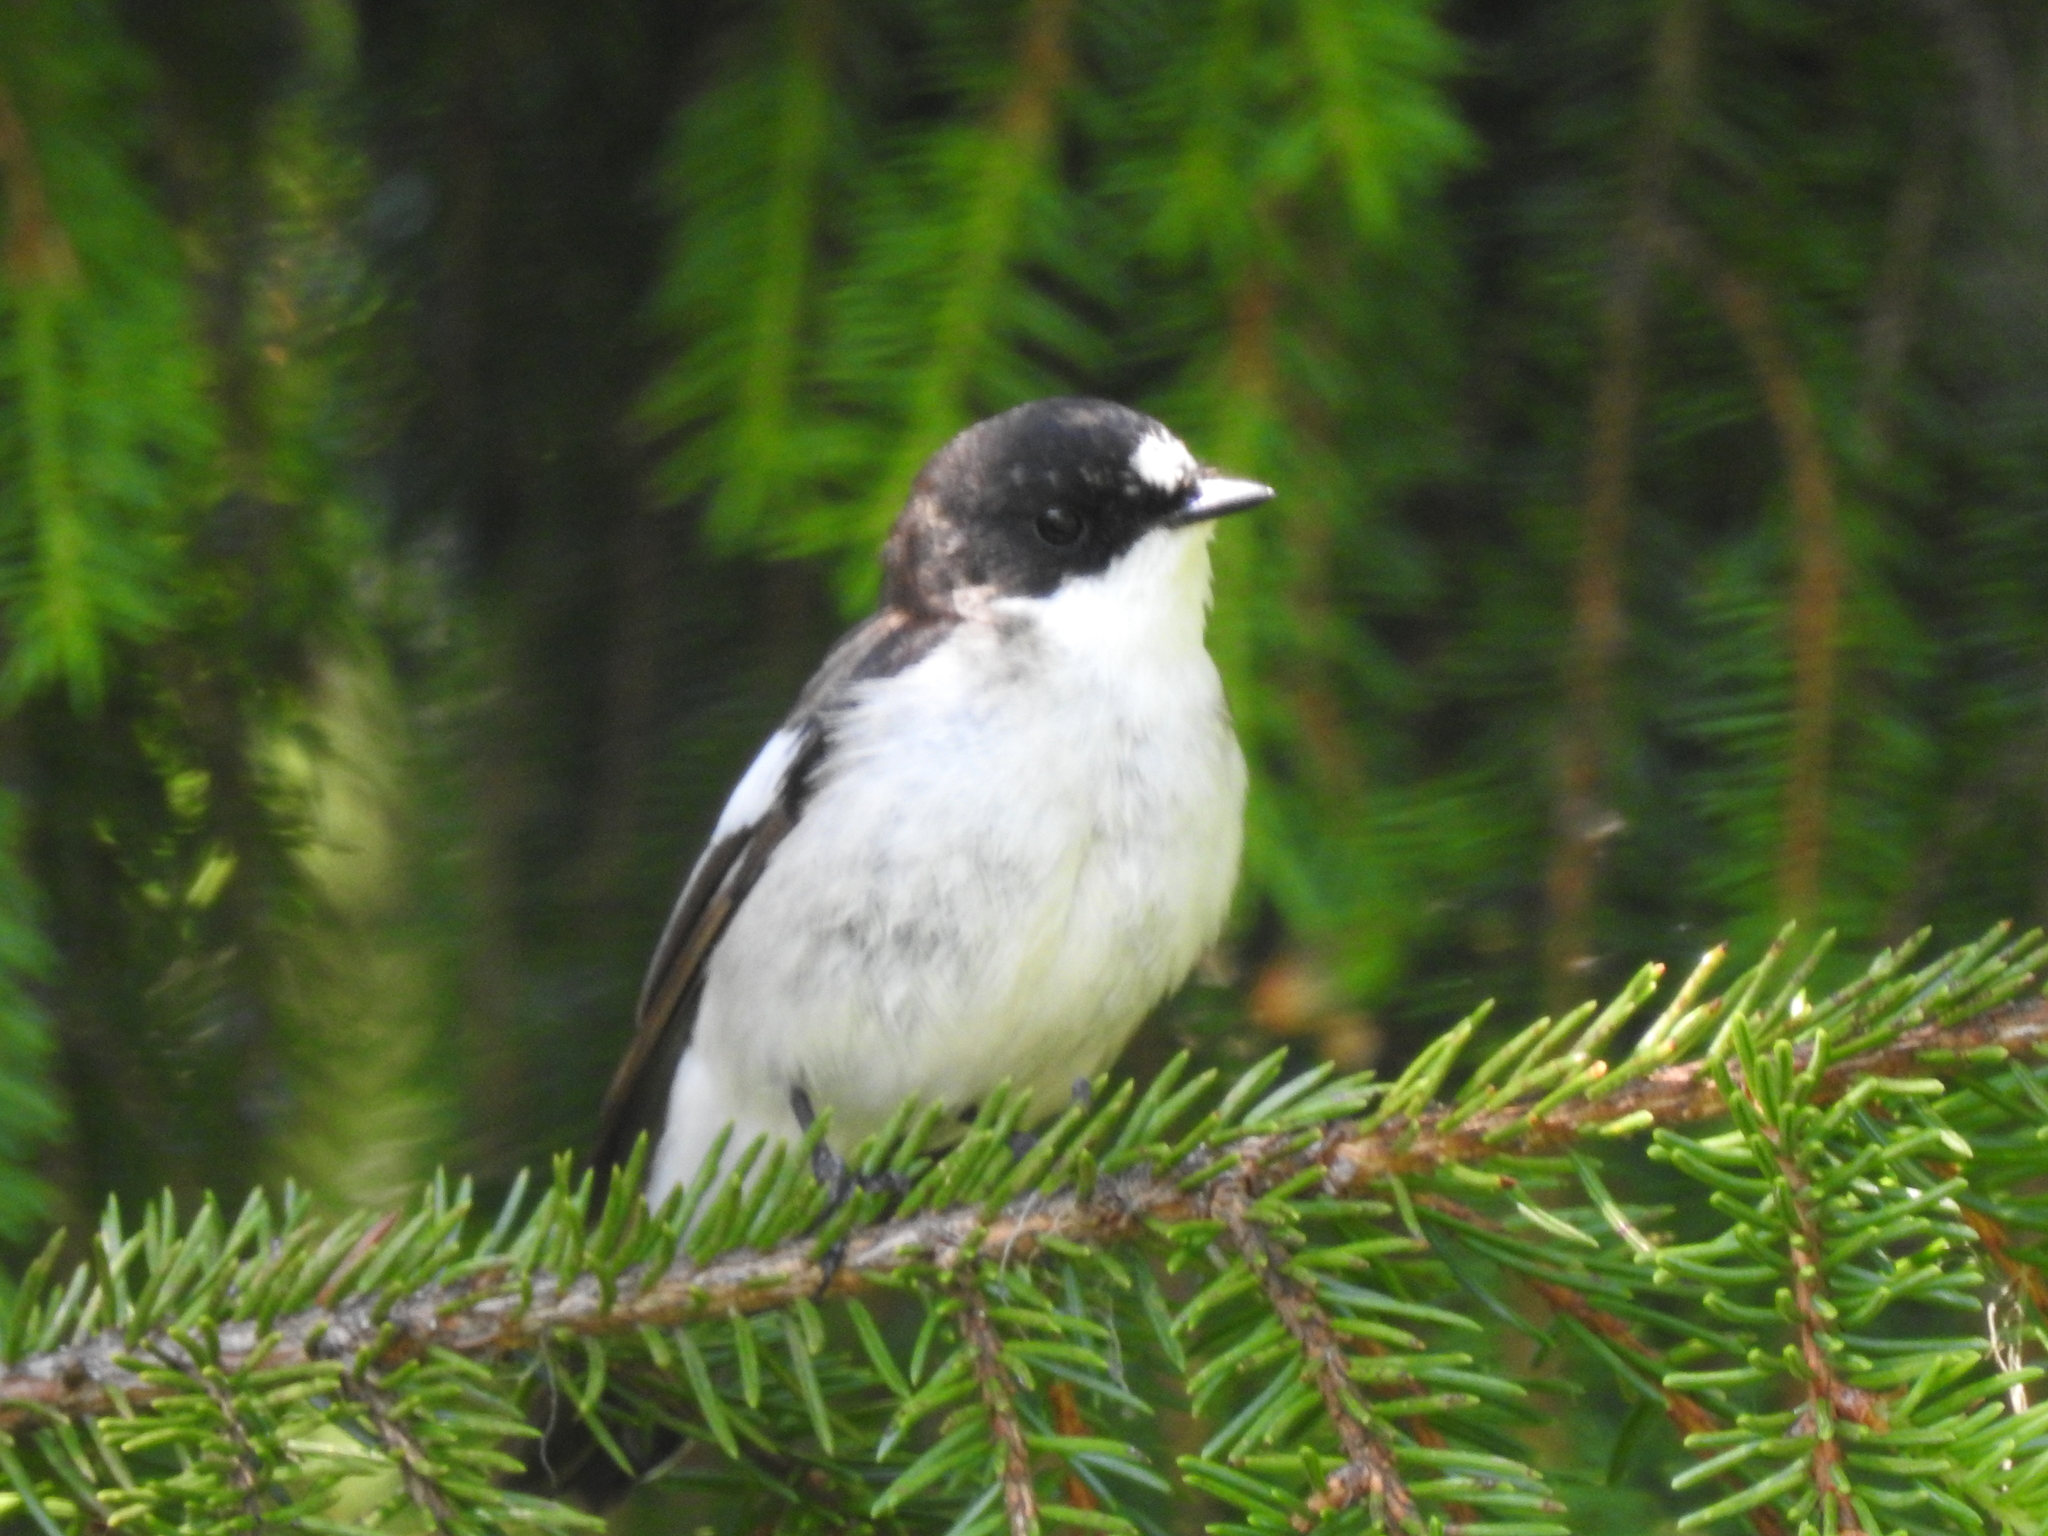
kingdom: Animalia
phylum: Chordata
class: Aves
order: Passeriformes
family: Muscicapidae
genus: Ficedula
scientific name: Ficedula hypoleuca
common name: European pied flycatcher
